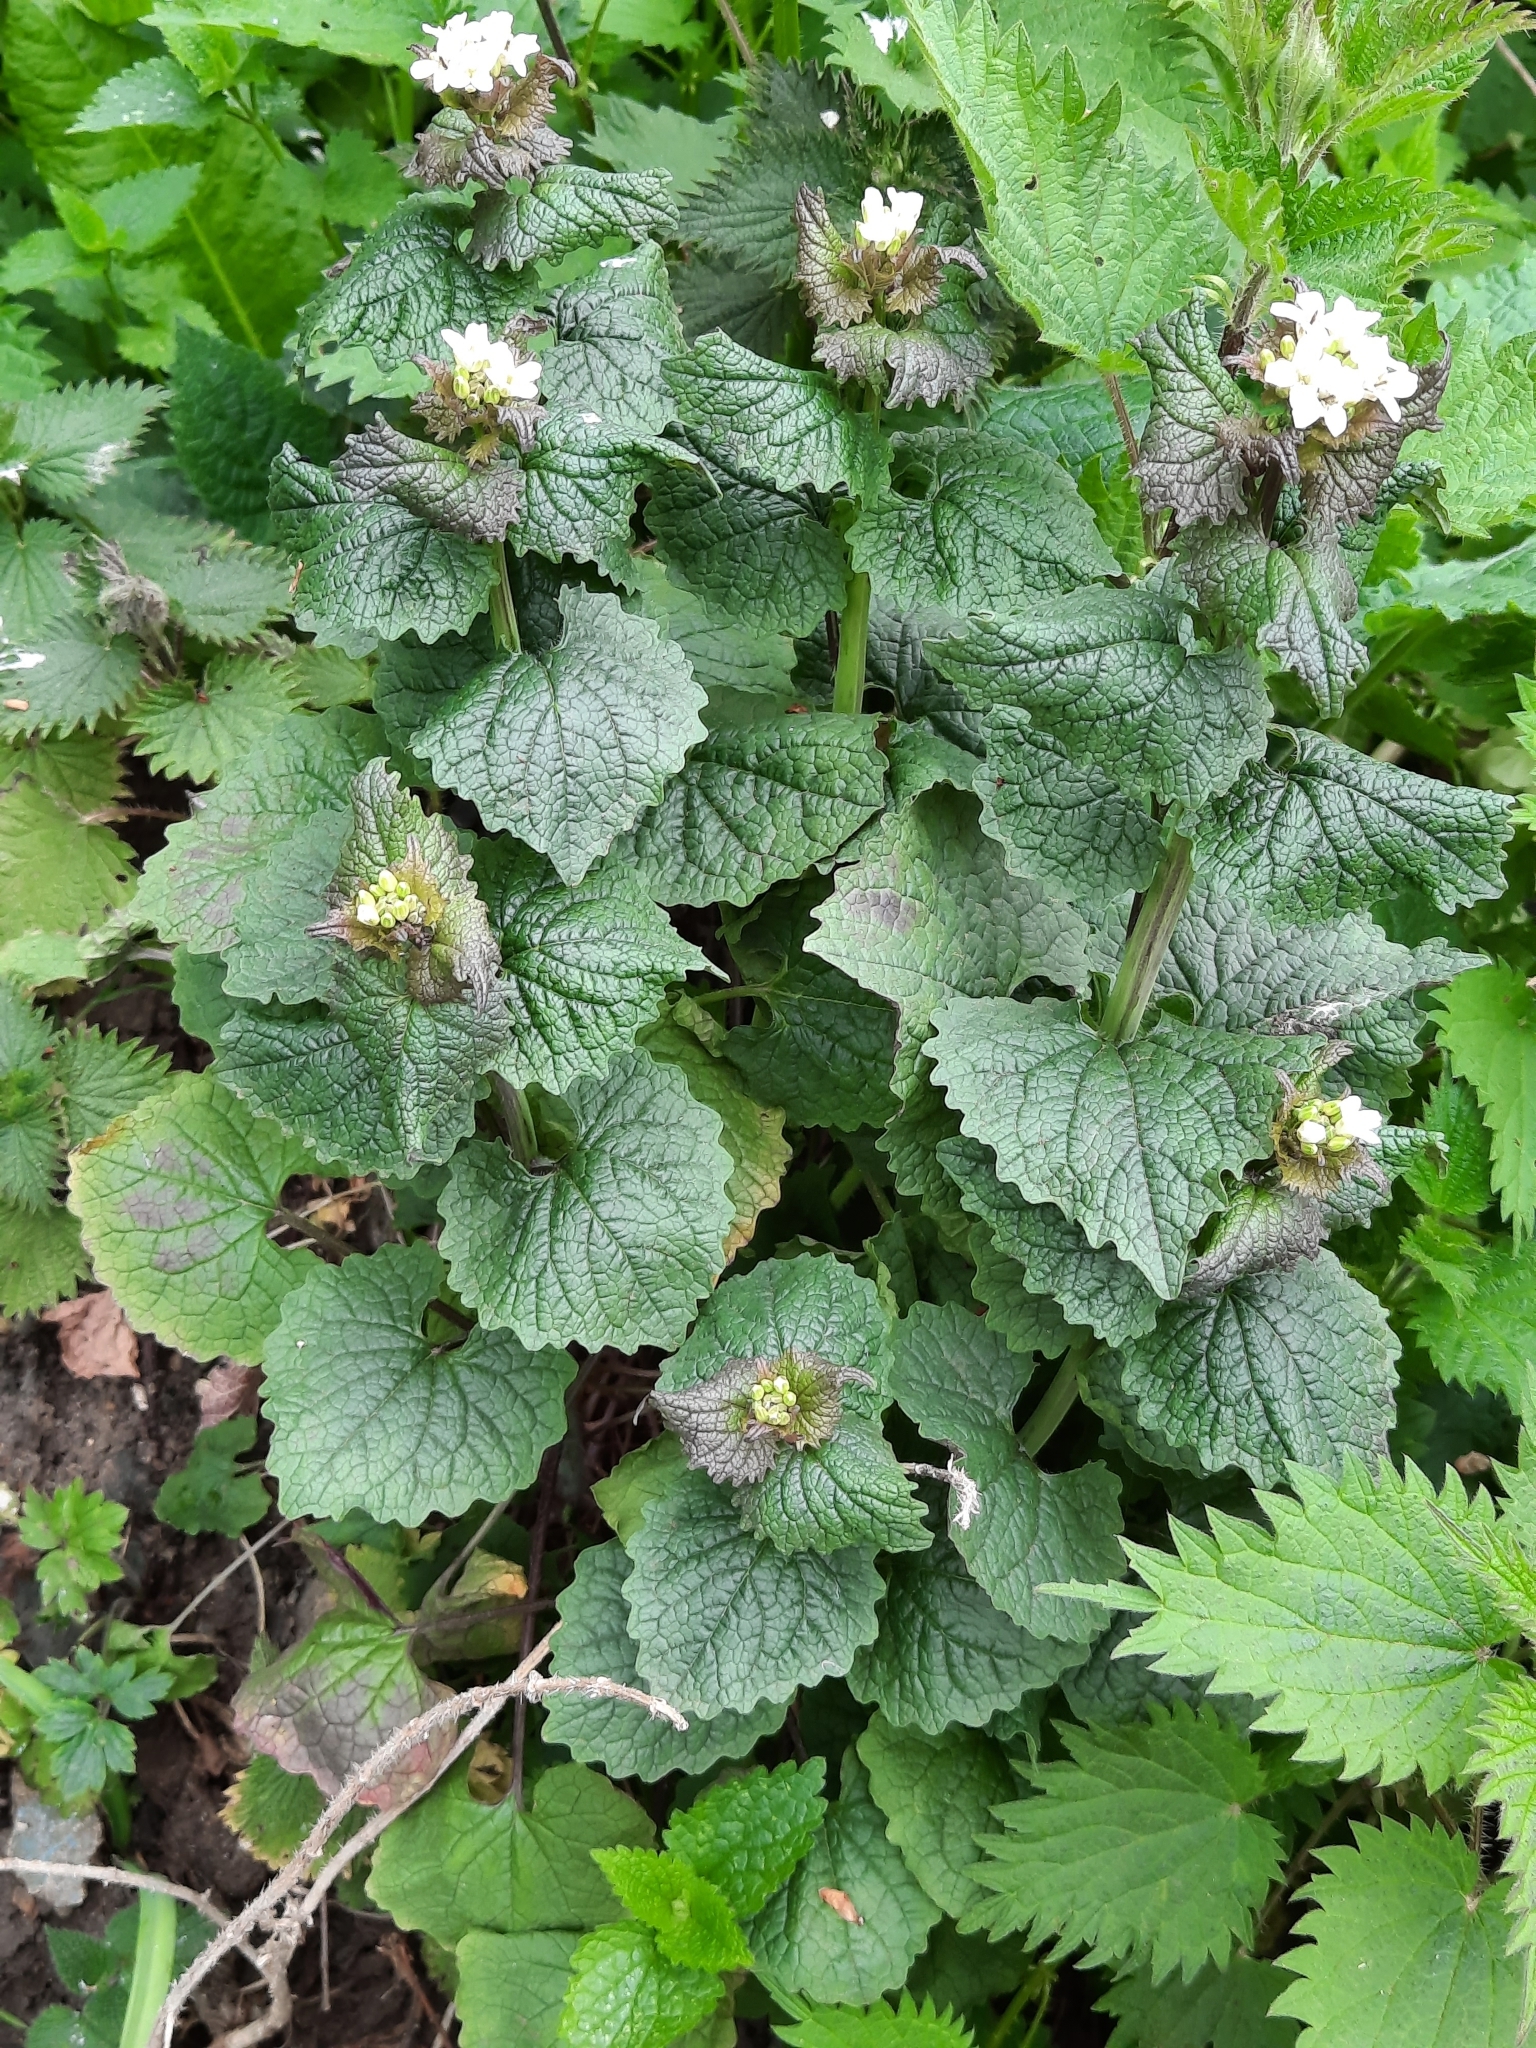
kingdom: Plantae
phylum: Tracheophyta
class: Magnoliopsida
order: Brassicales
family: Brassicaceae
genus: Alliaria
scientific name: Alliaria petiolata
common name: Garlic mustard
